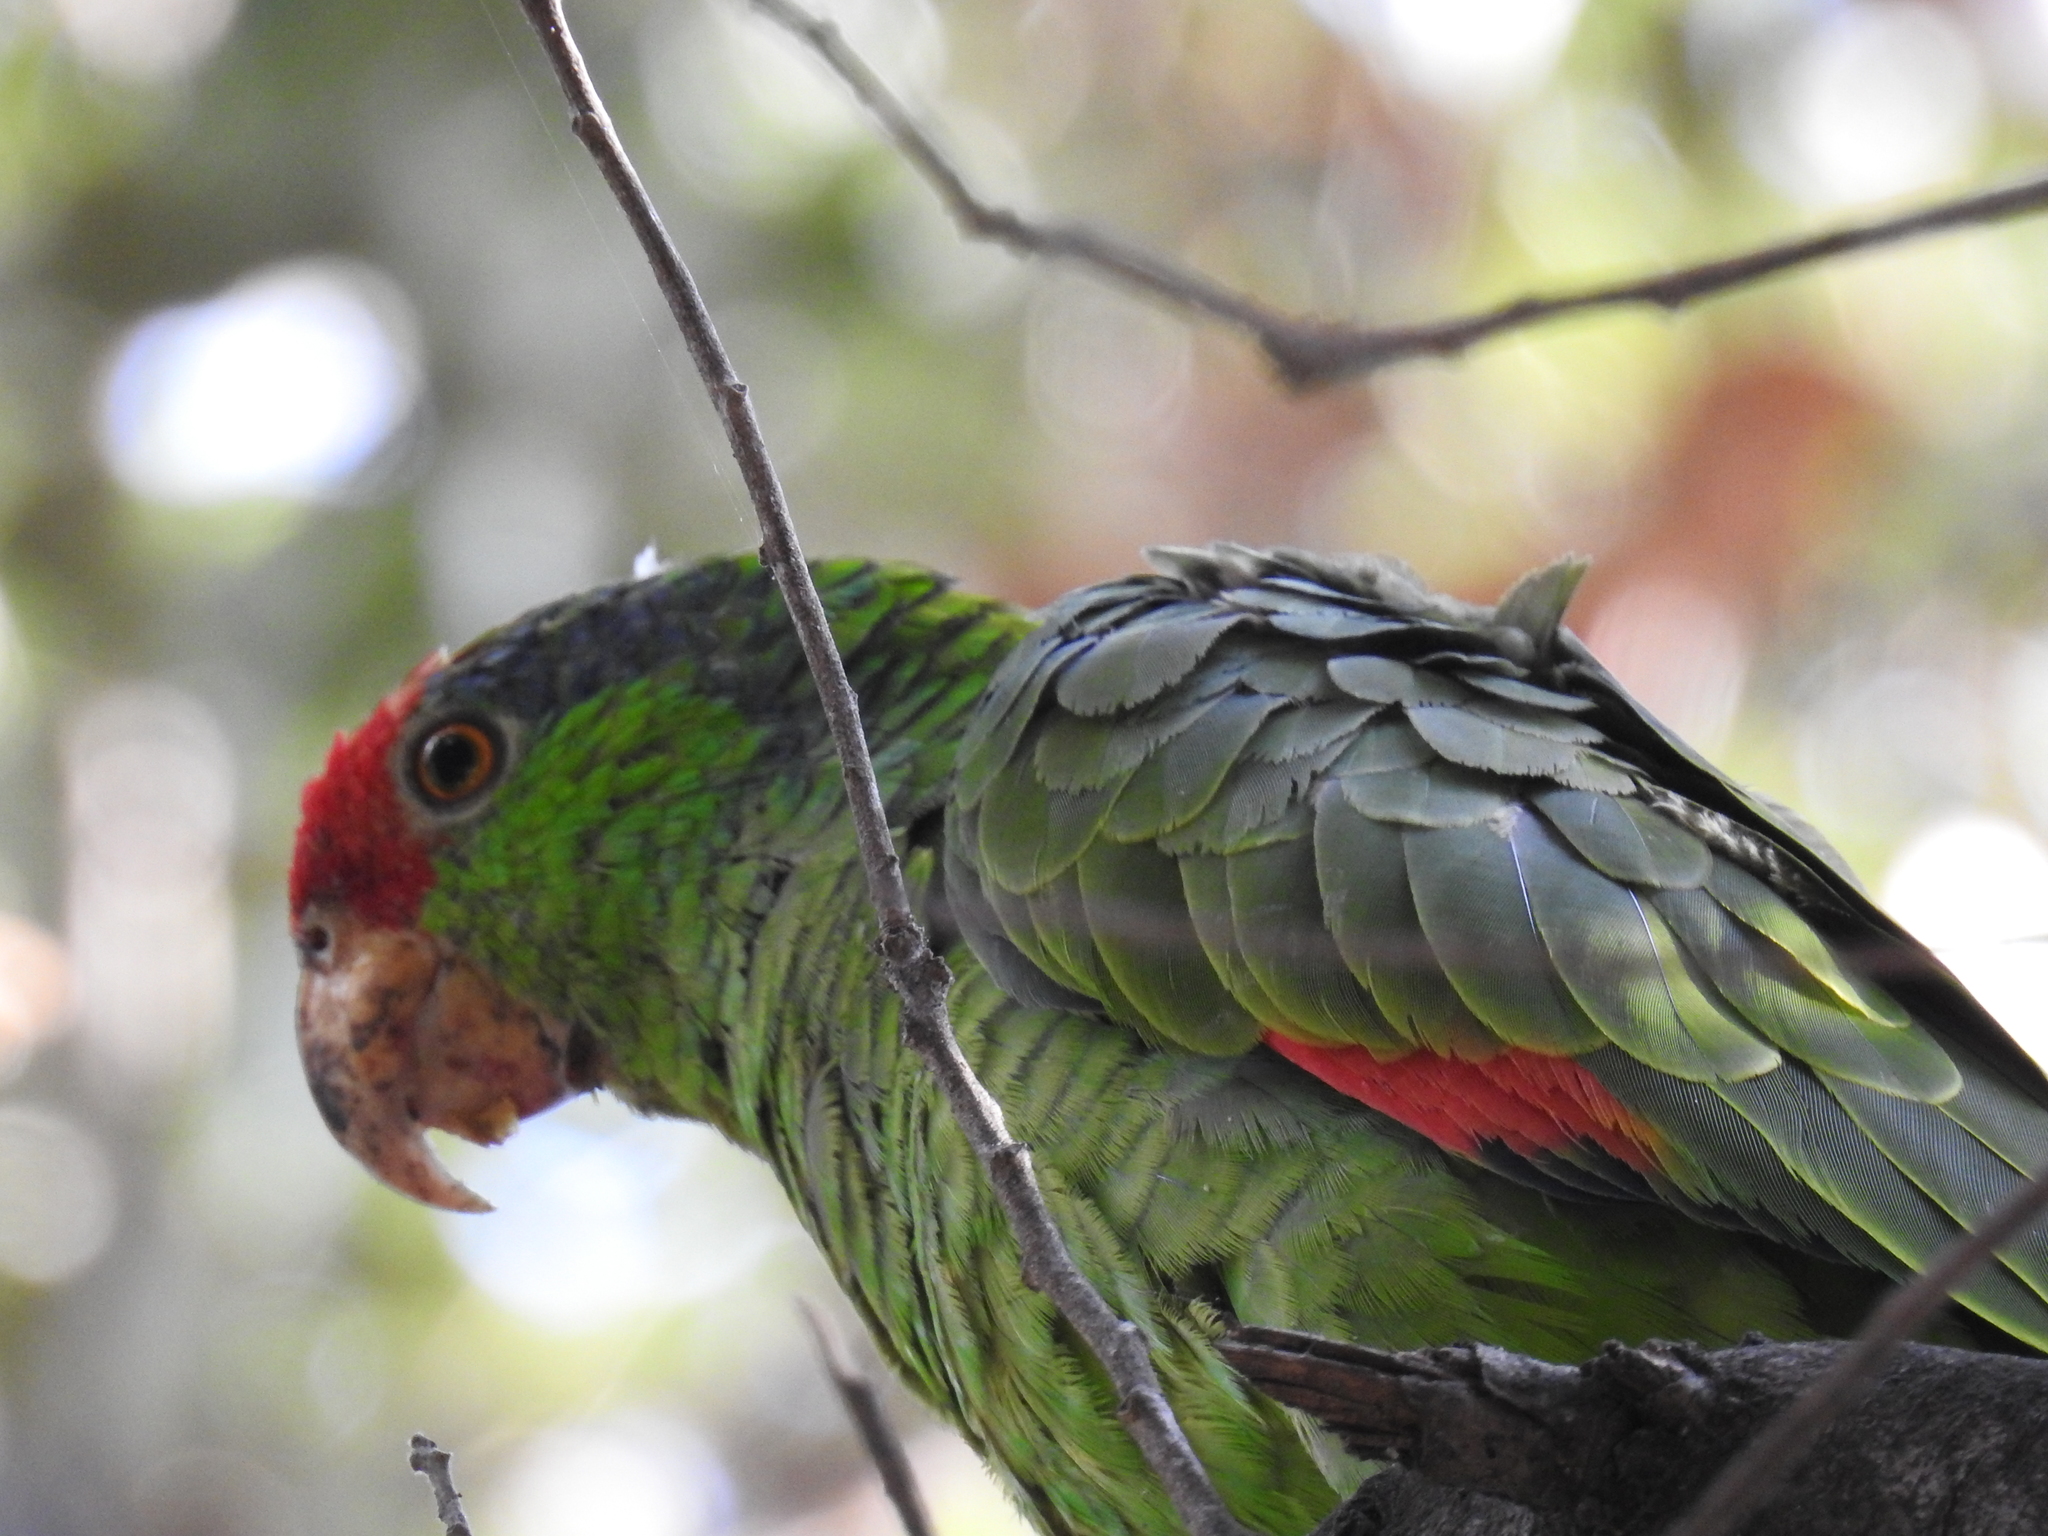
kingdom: Animalia
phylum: Chordata
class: Aves
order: Psittaciformes
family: Psittacidae
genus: Amazona
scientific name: Amazona viridigenalis
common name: Red-crowned amazon
